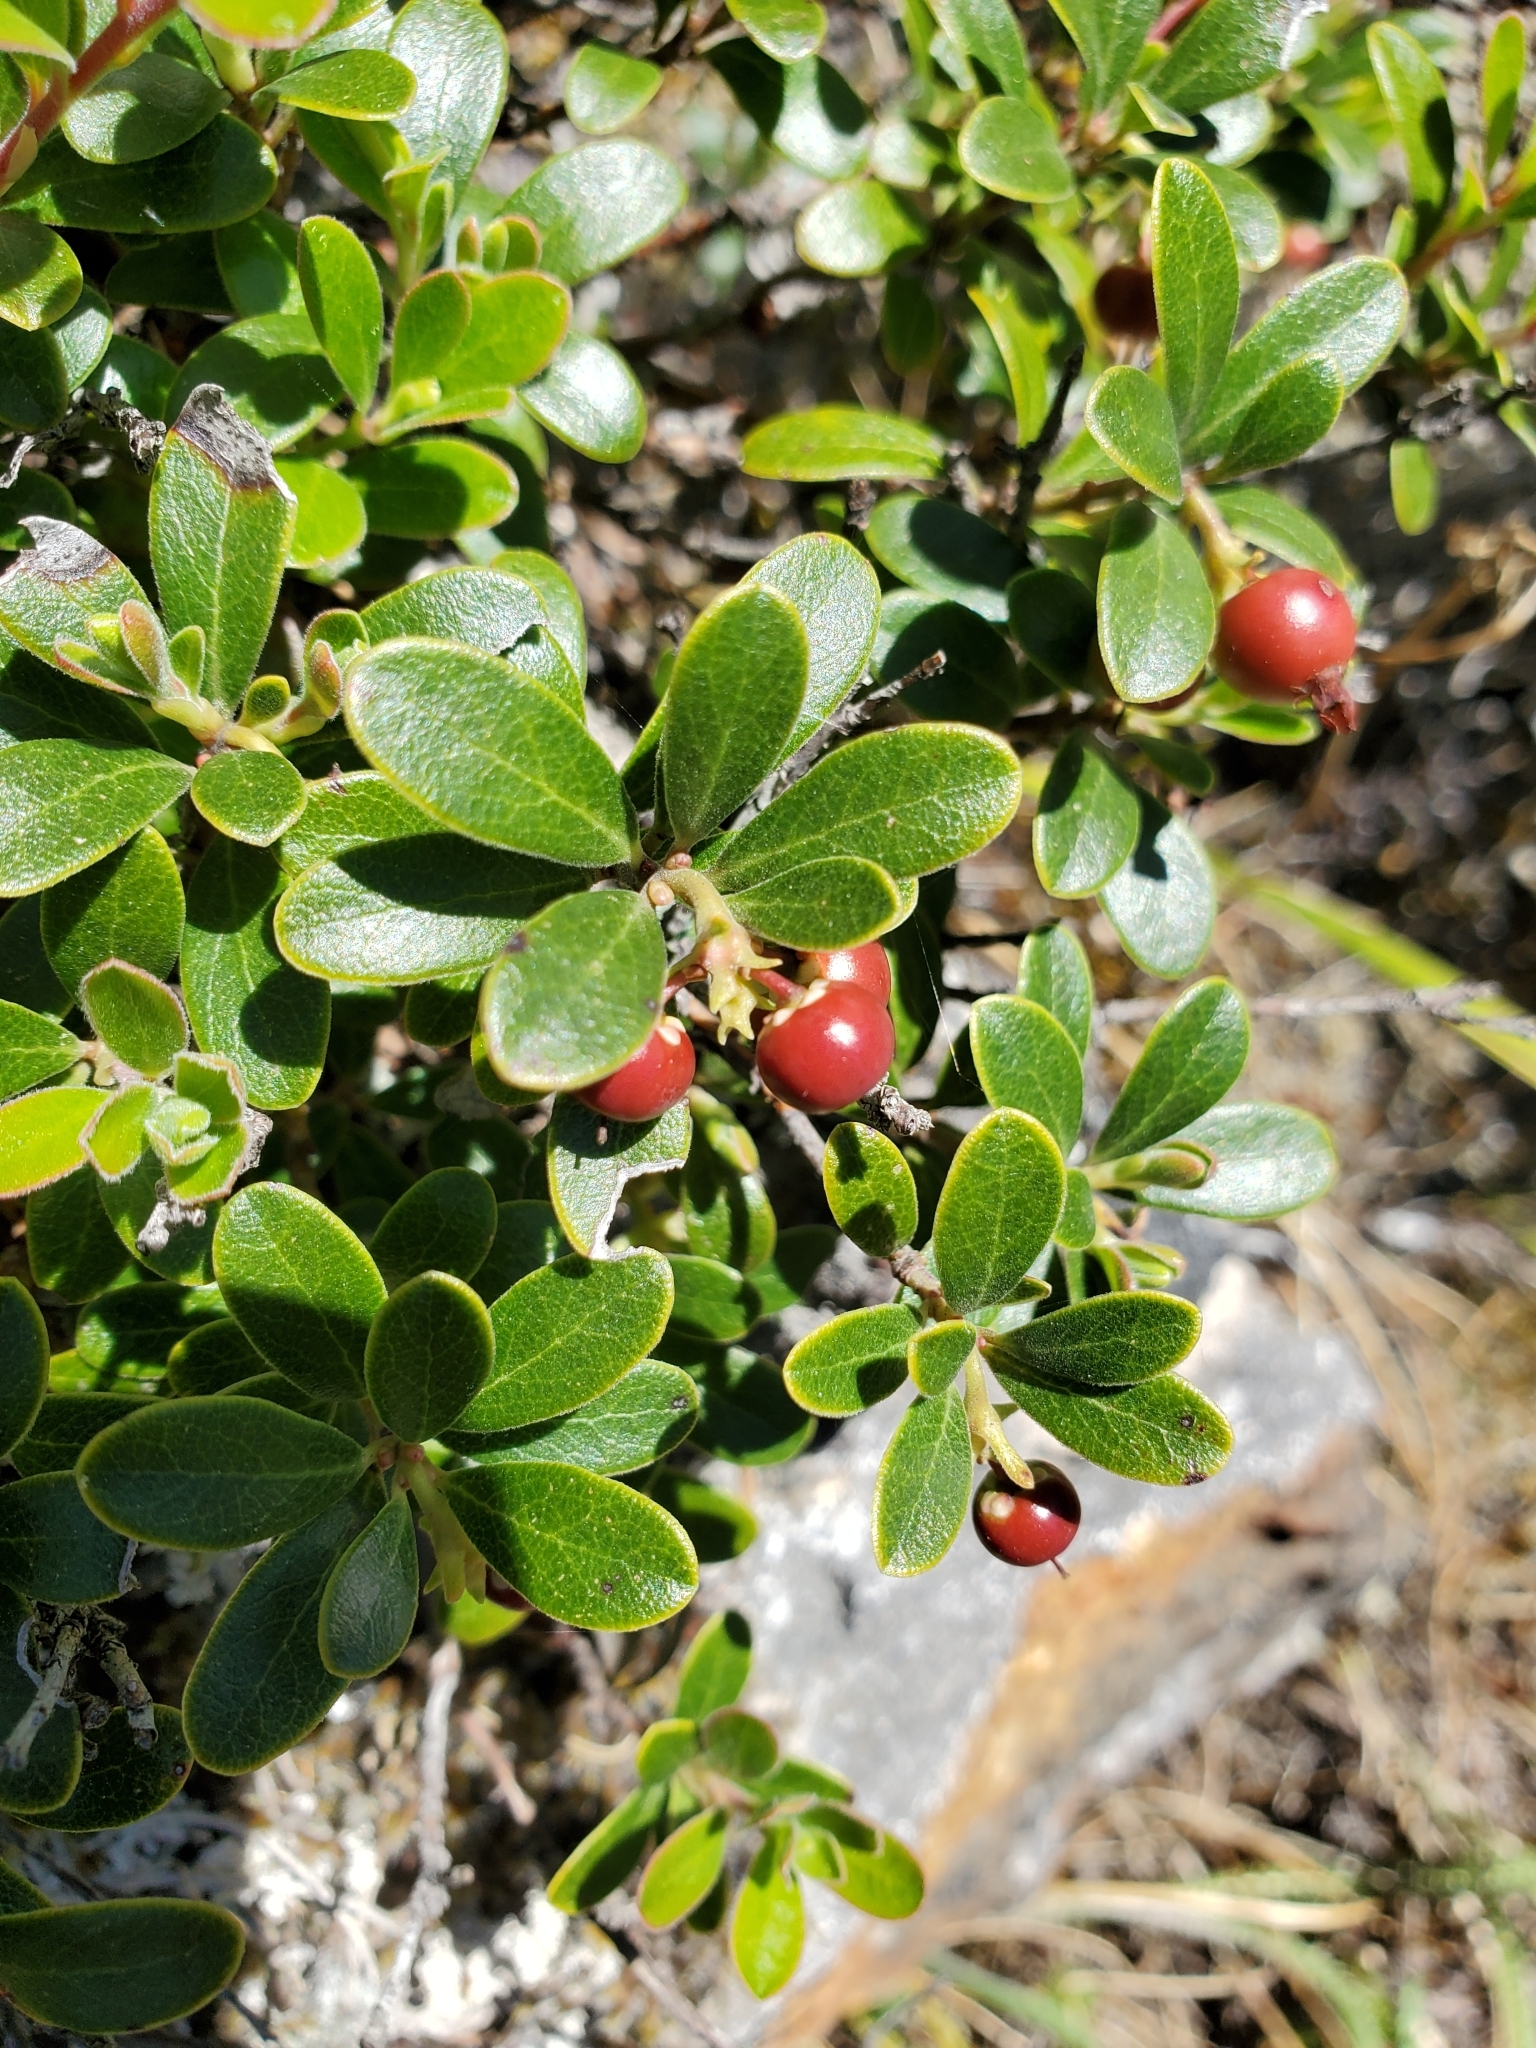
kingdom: Plantae
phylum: Tracheophyta
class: Magnoliopsida
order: Ericales
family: Ericaceae
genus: Arctostaphylos
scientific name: Arctostaphylos uva-ursi
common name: Bearberry
